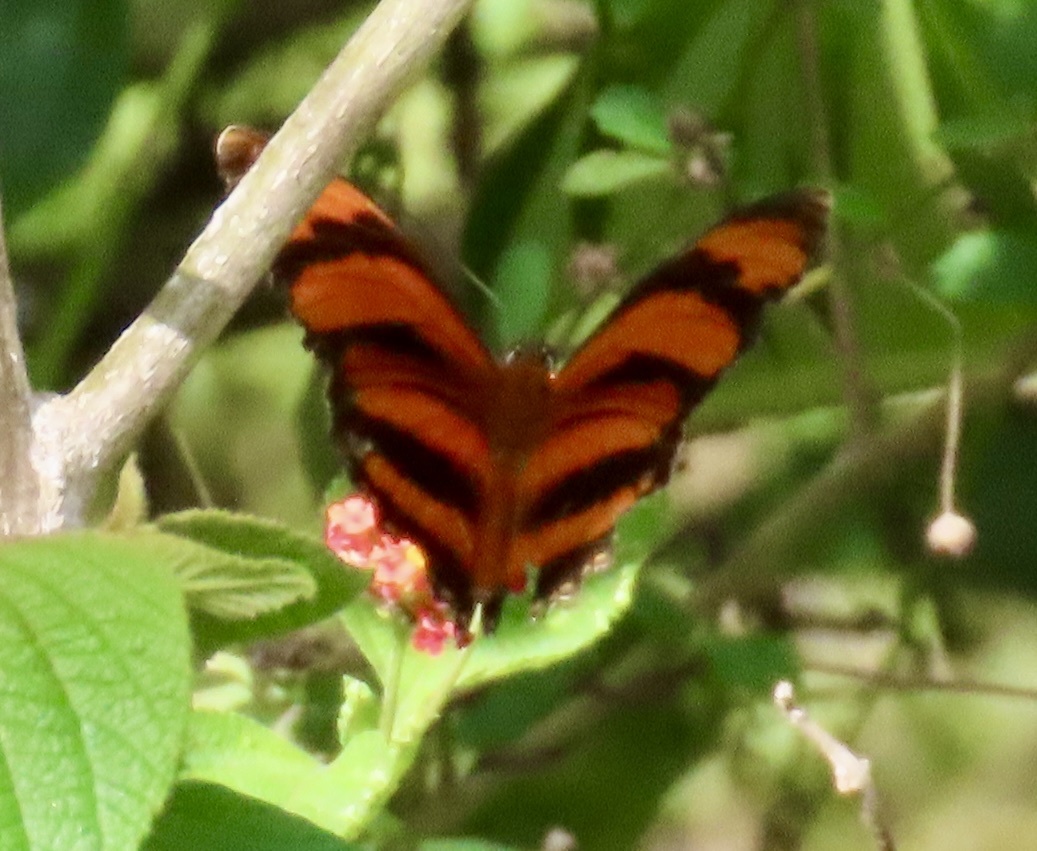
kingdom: Animalia
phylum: Arthropoda
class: Insecta
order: Lepidoptera
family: Nymphalidae
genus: Dryadula
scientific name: Dryadula phaetusa
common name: Banded orange heliconian
